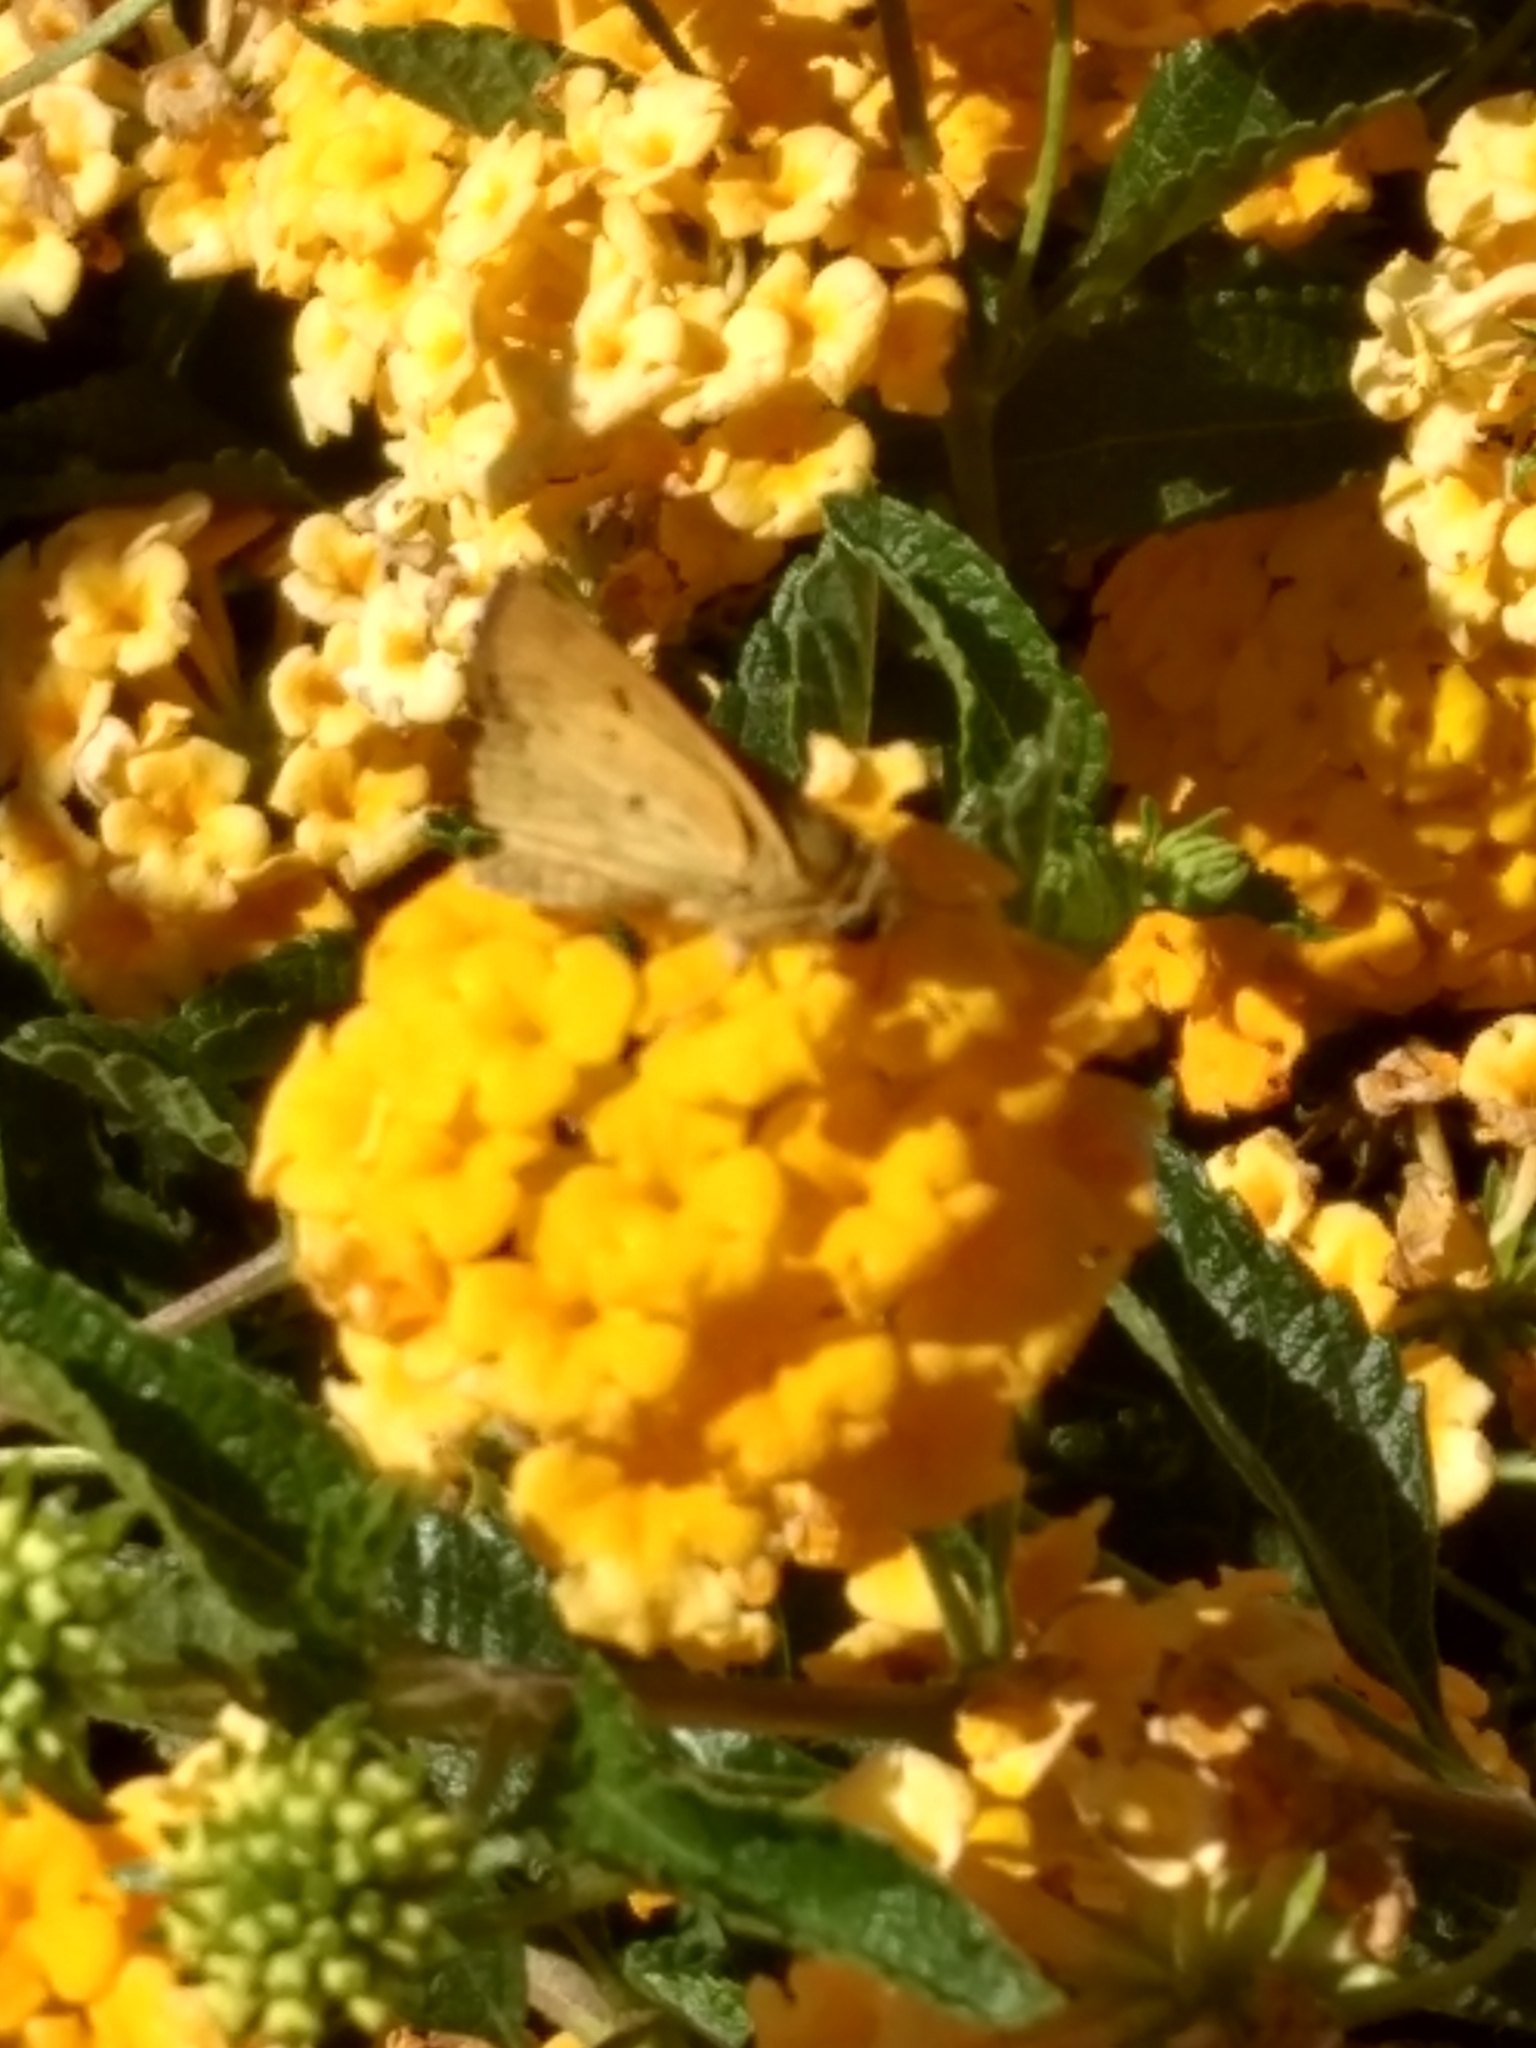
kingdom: Animalia
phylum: Arthropoda
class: Insecta
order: Lepidoptera
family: Hesperiidae
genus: Hylephila
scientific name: Hylephila phyleus
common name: Fiery skipper
